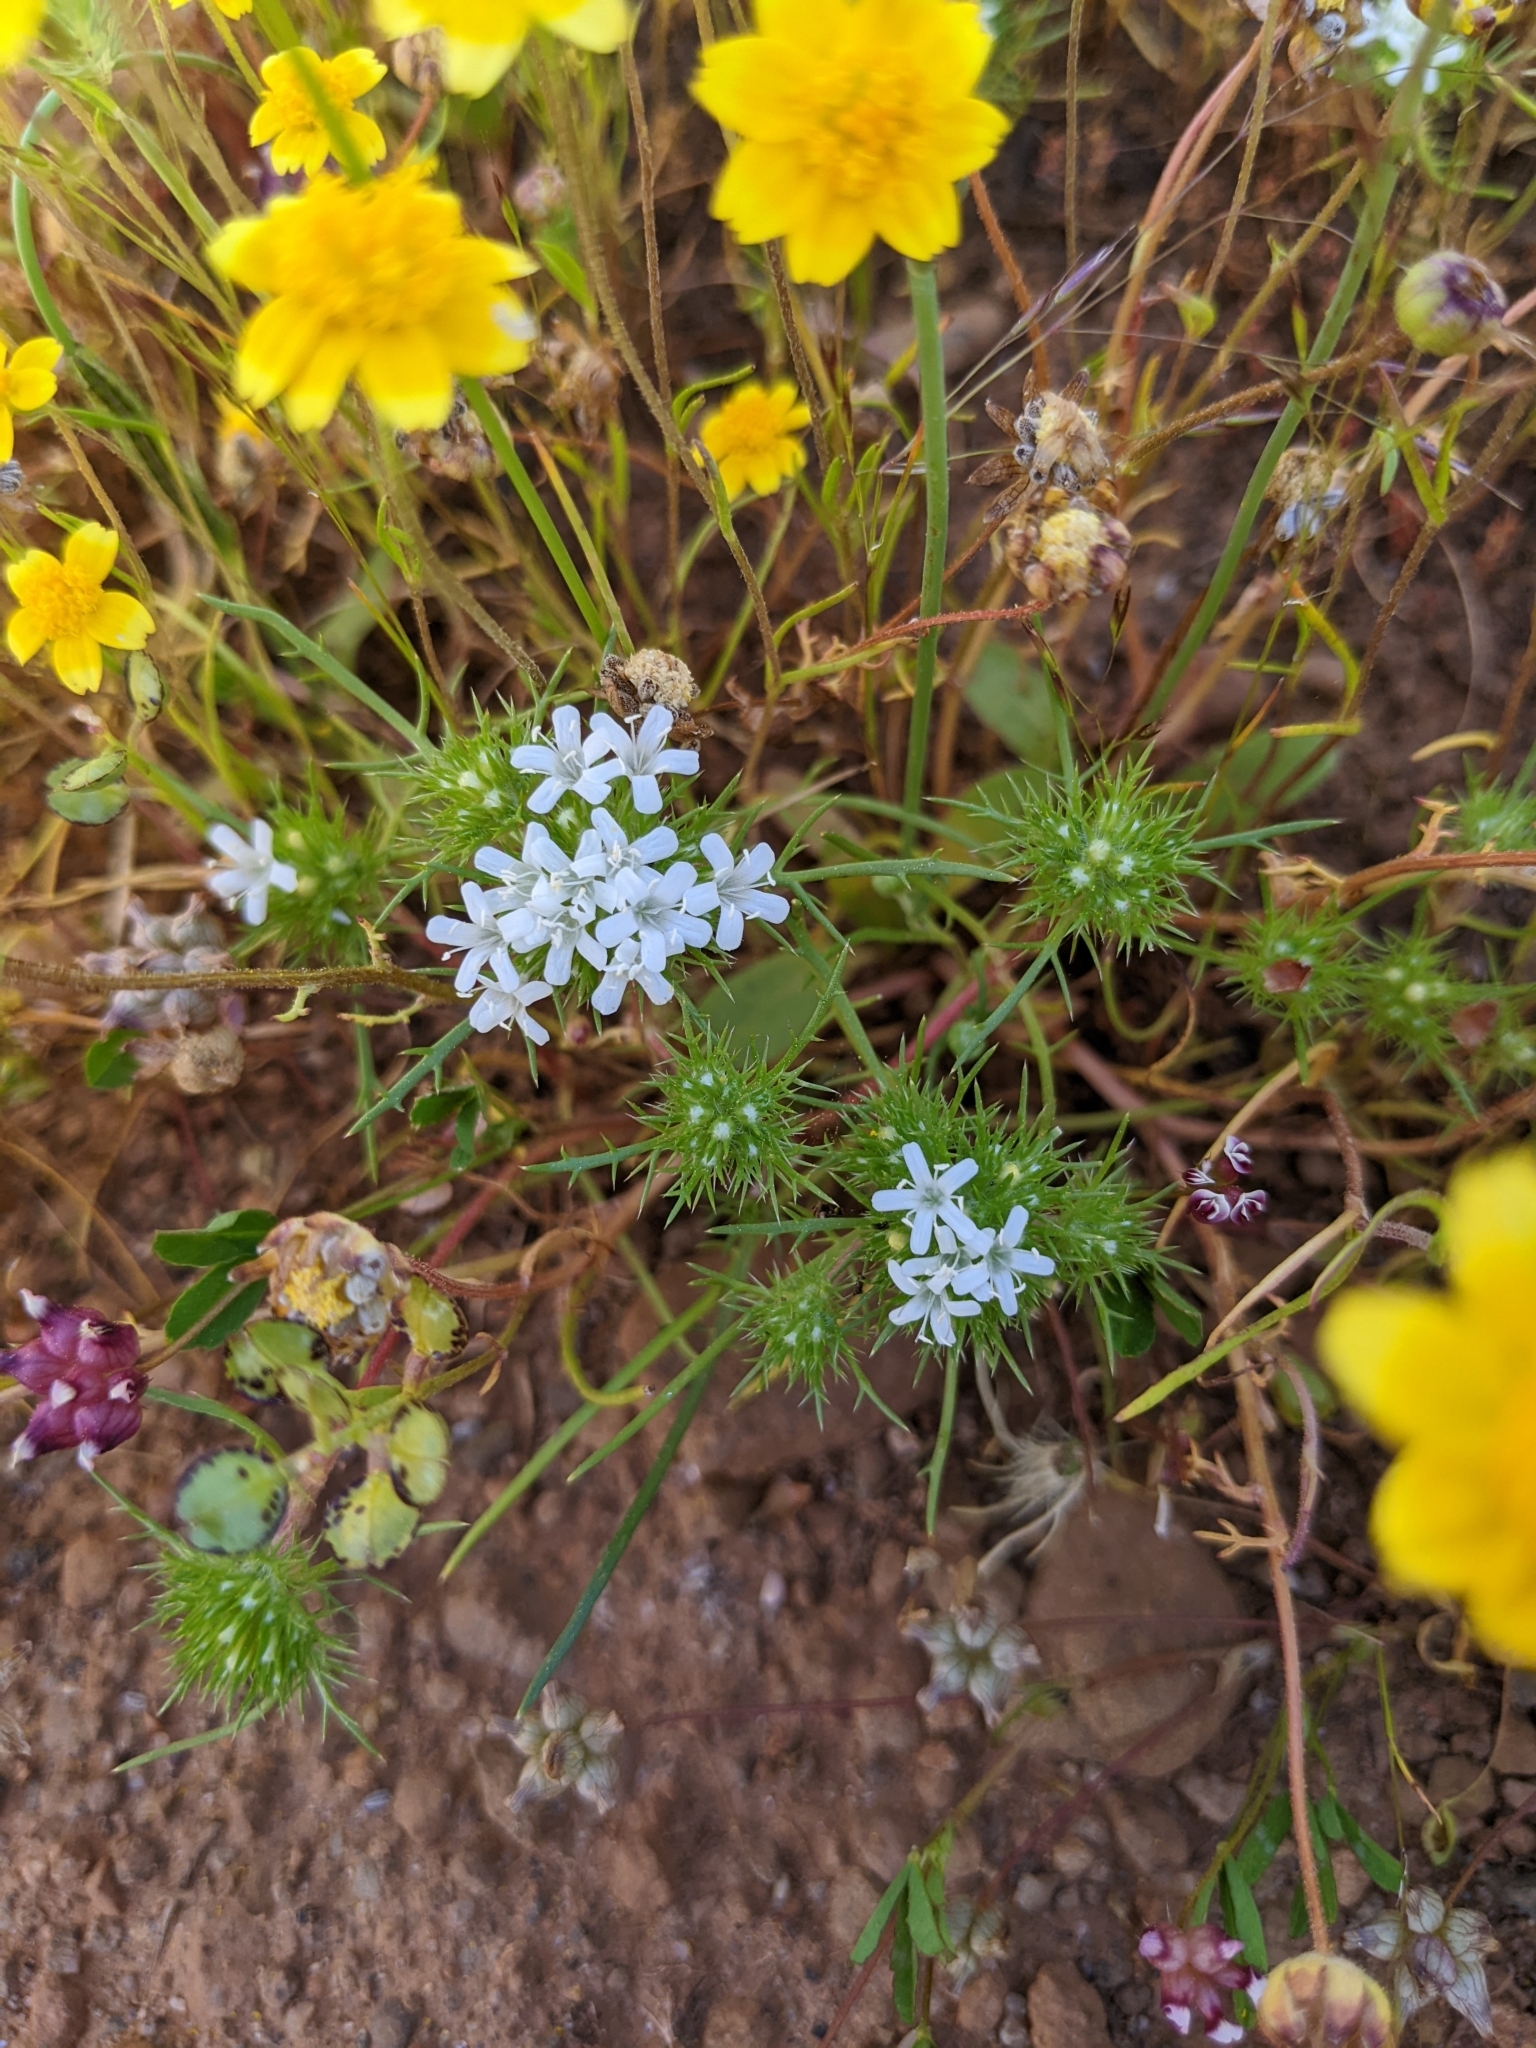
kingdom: Plantae
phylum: Tracheophyta
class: Magnoliopsida
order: Ericales
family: Polemoniaceae
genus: Navarretia
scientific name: Navarretia leucocephala
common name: White-flowered navarretia
